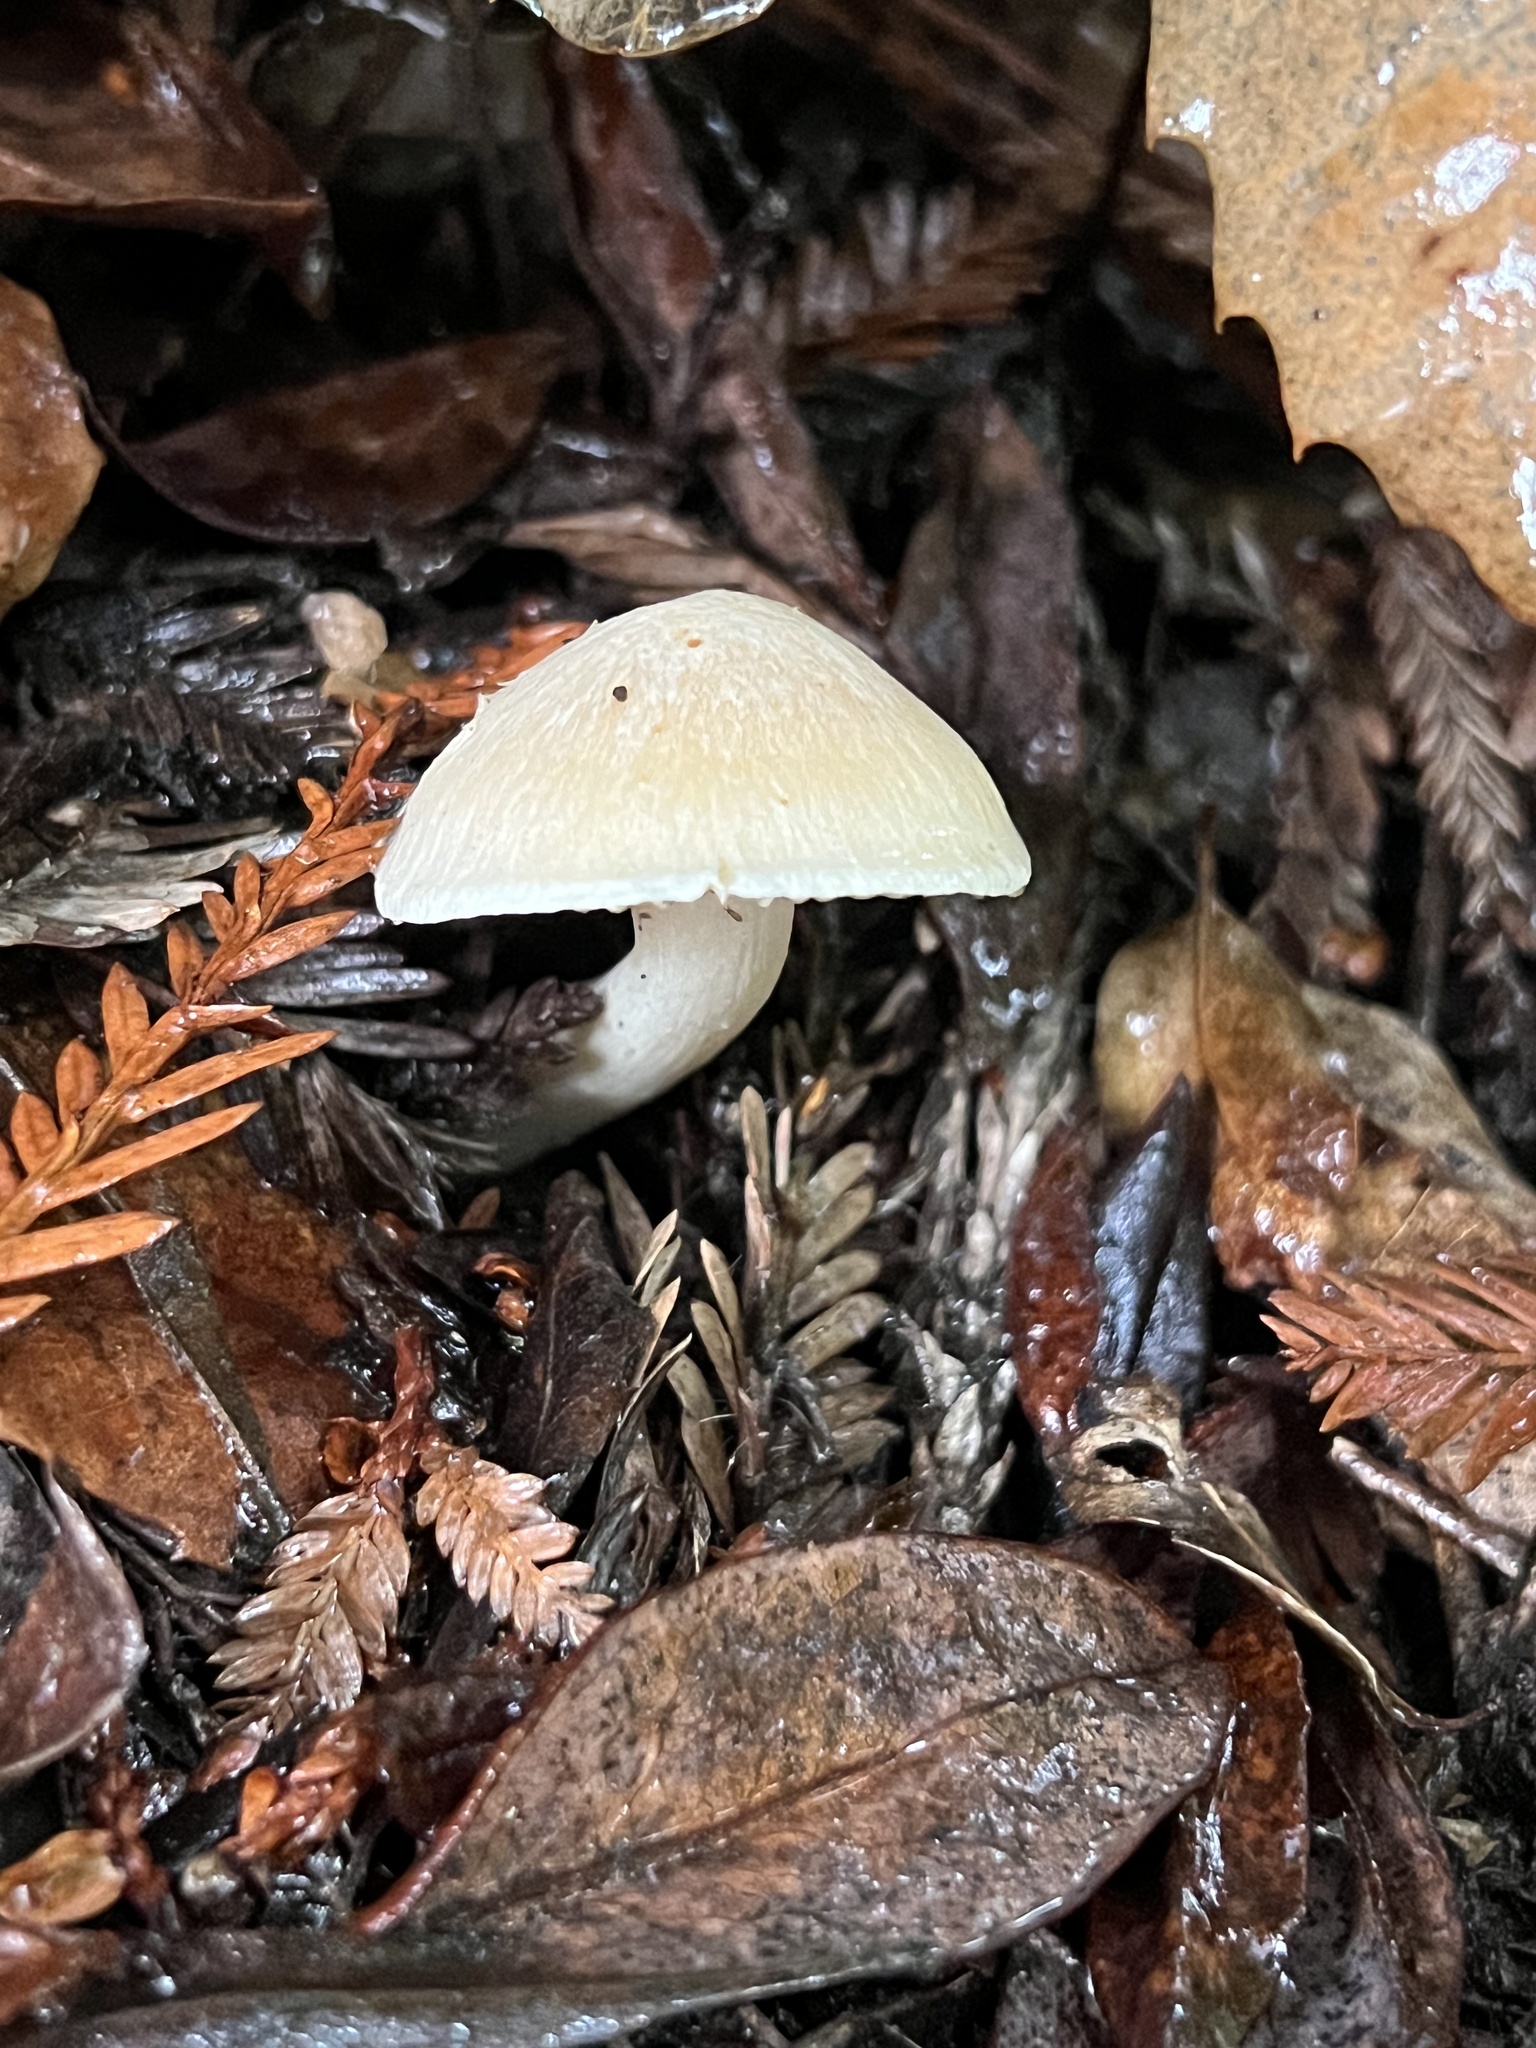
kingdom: Fungi
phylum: Basidiomycota
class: Agaricomycetes
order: Agaricales
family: Hygrophoraceae
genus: Cuphophyllus
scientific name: Cuphophyllus pratensis
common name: Meadow waxcap
